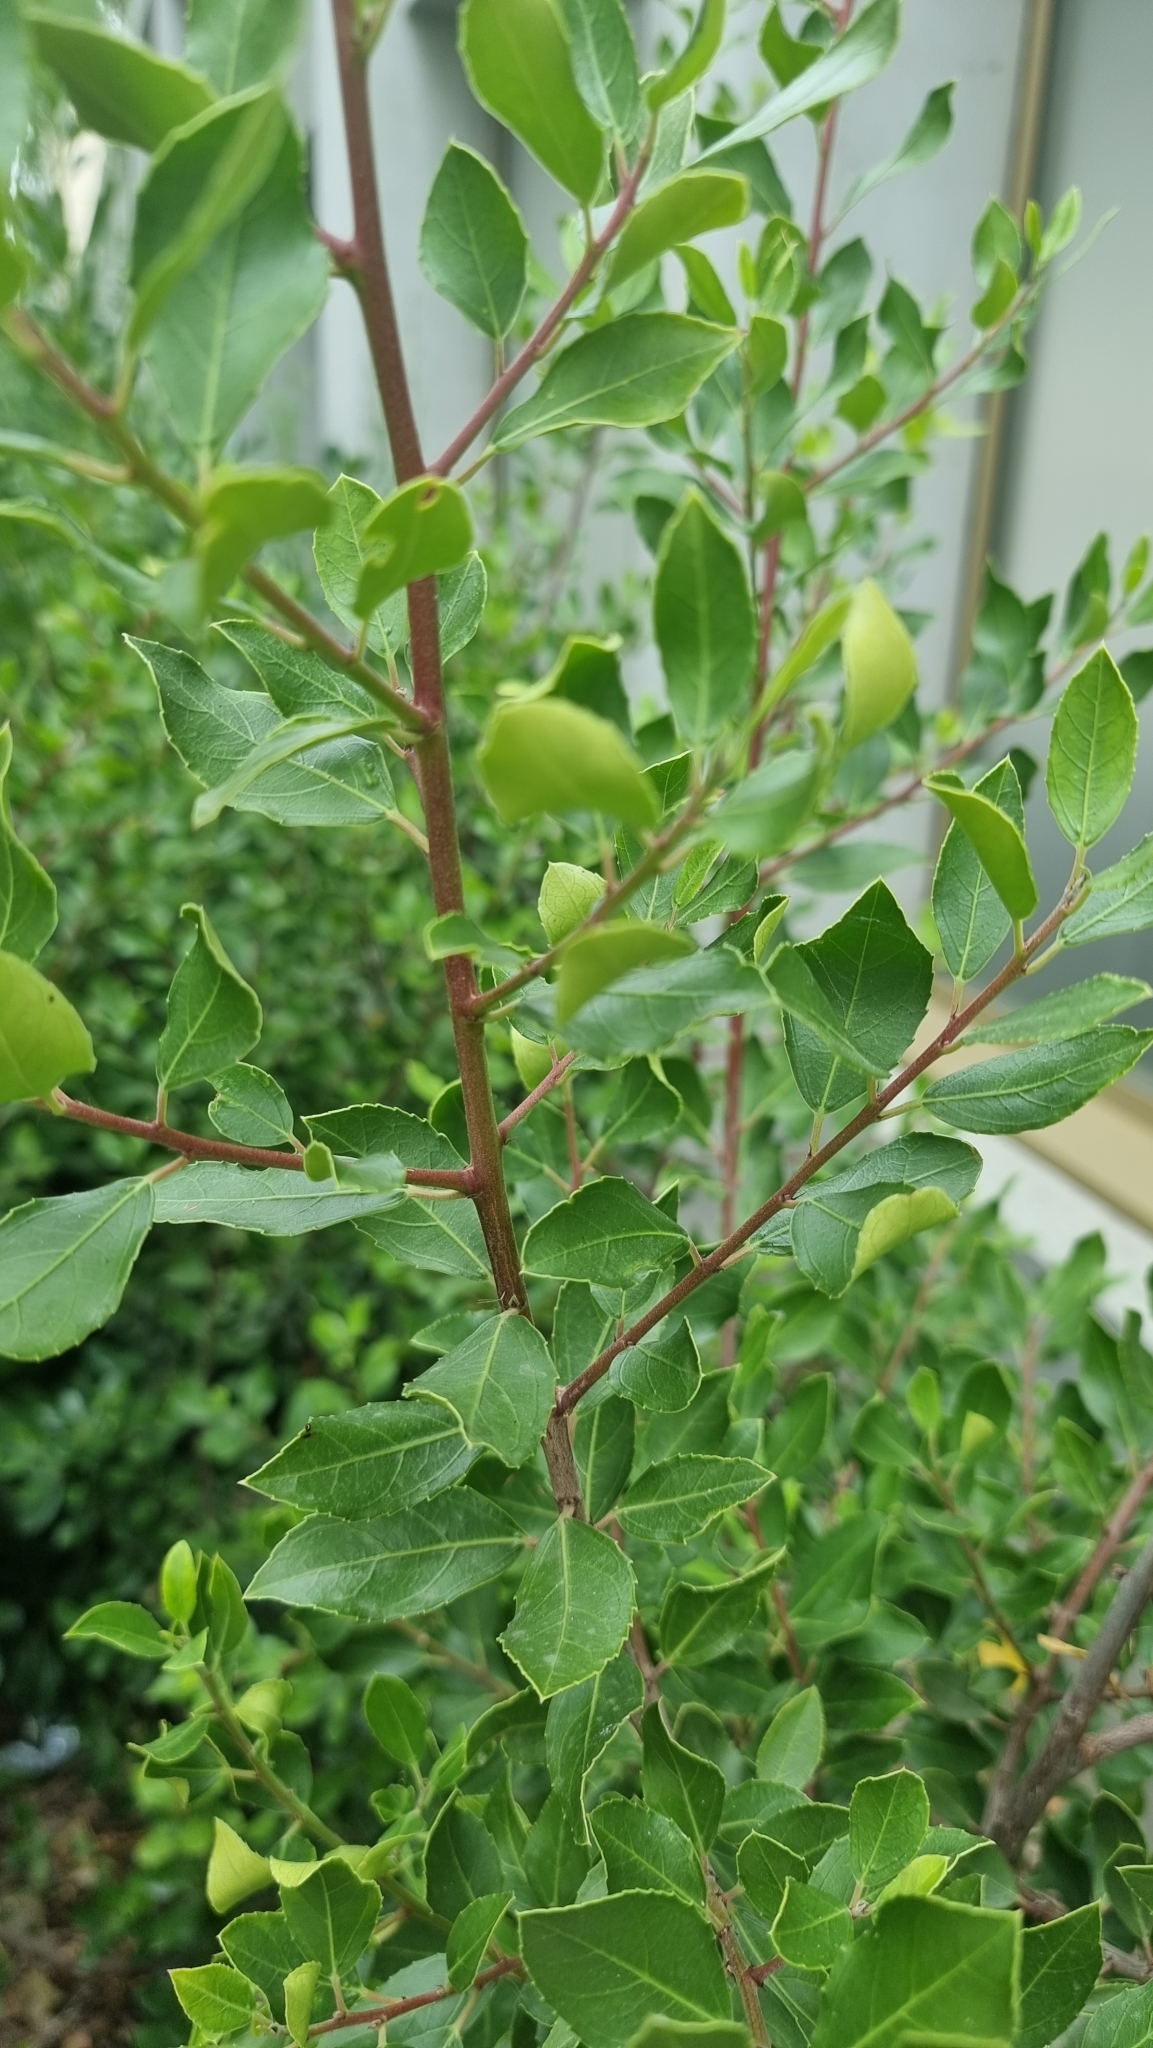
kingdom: Plantae
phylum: Tracheophyta
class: Magnoliopsida
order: Rosales
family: Rhamnaceae
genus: Rhamnus
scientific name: Rhamnus alaternus
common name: Mediterranean buckthorn
